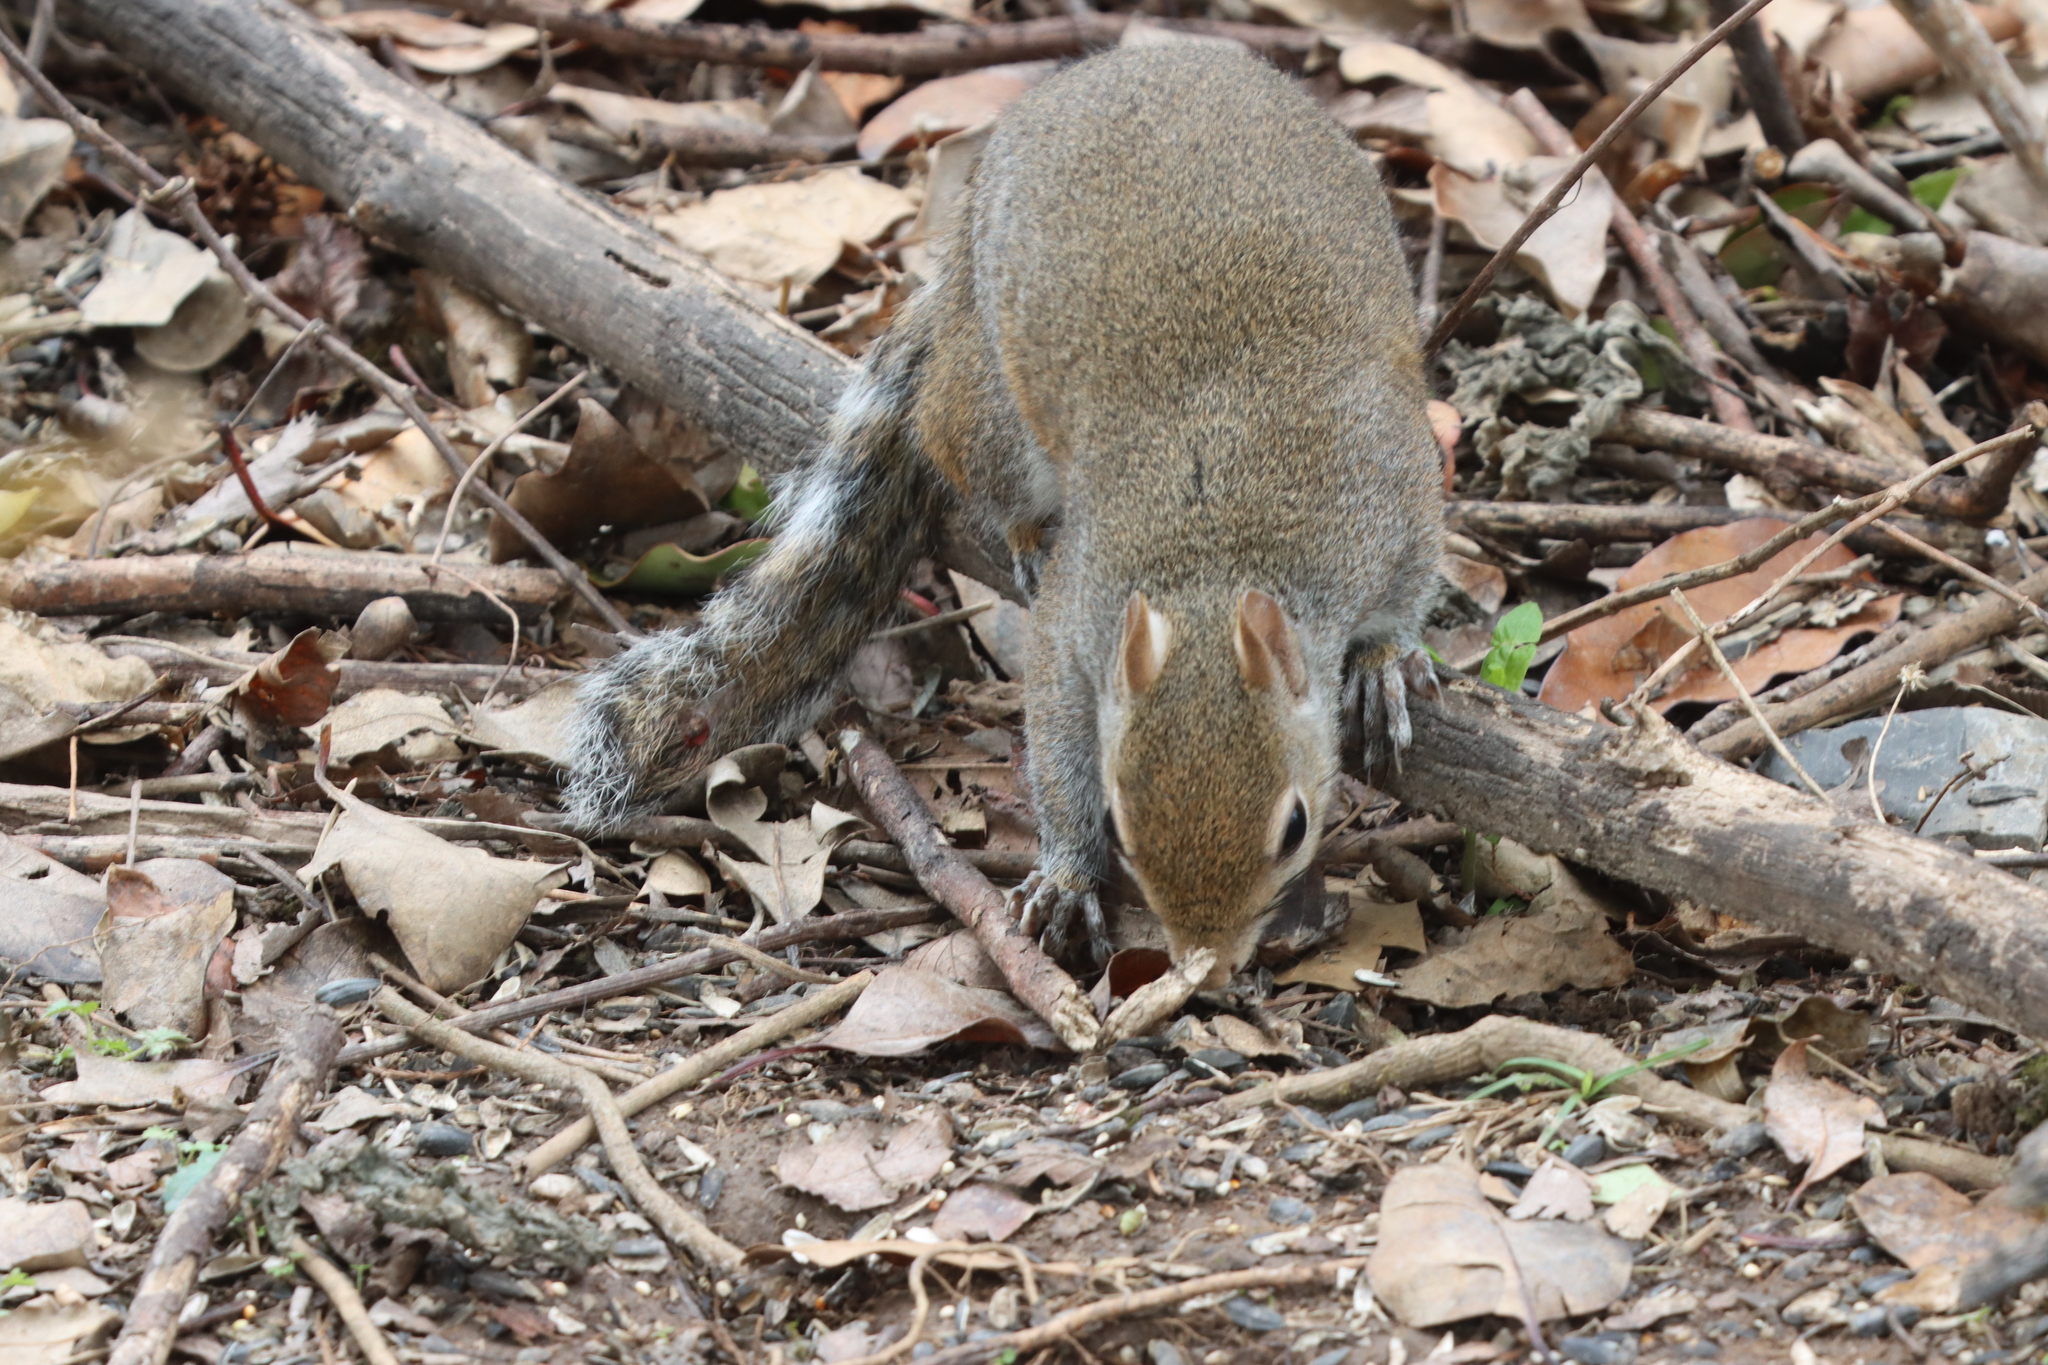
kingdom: Animalia
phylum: Chordata
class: Mammalia
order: Rodentia
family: Sciuridae
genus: Sciurus
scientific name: Sciurus carolinensis
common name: Eastern gray squirrel
